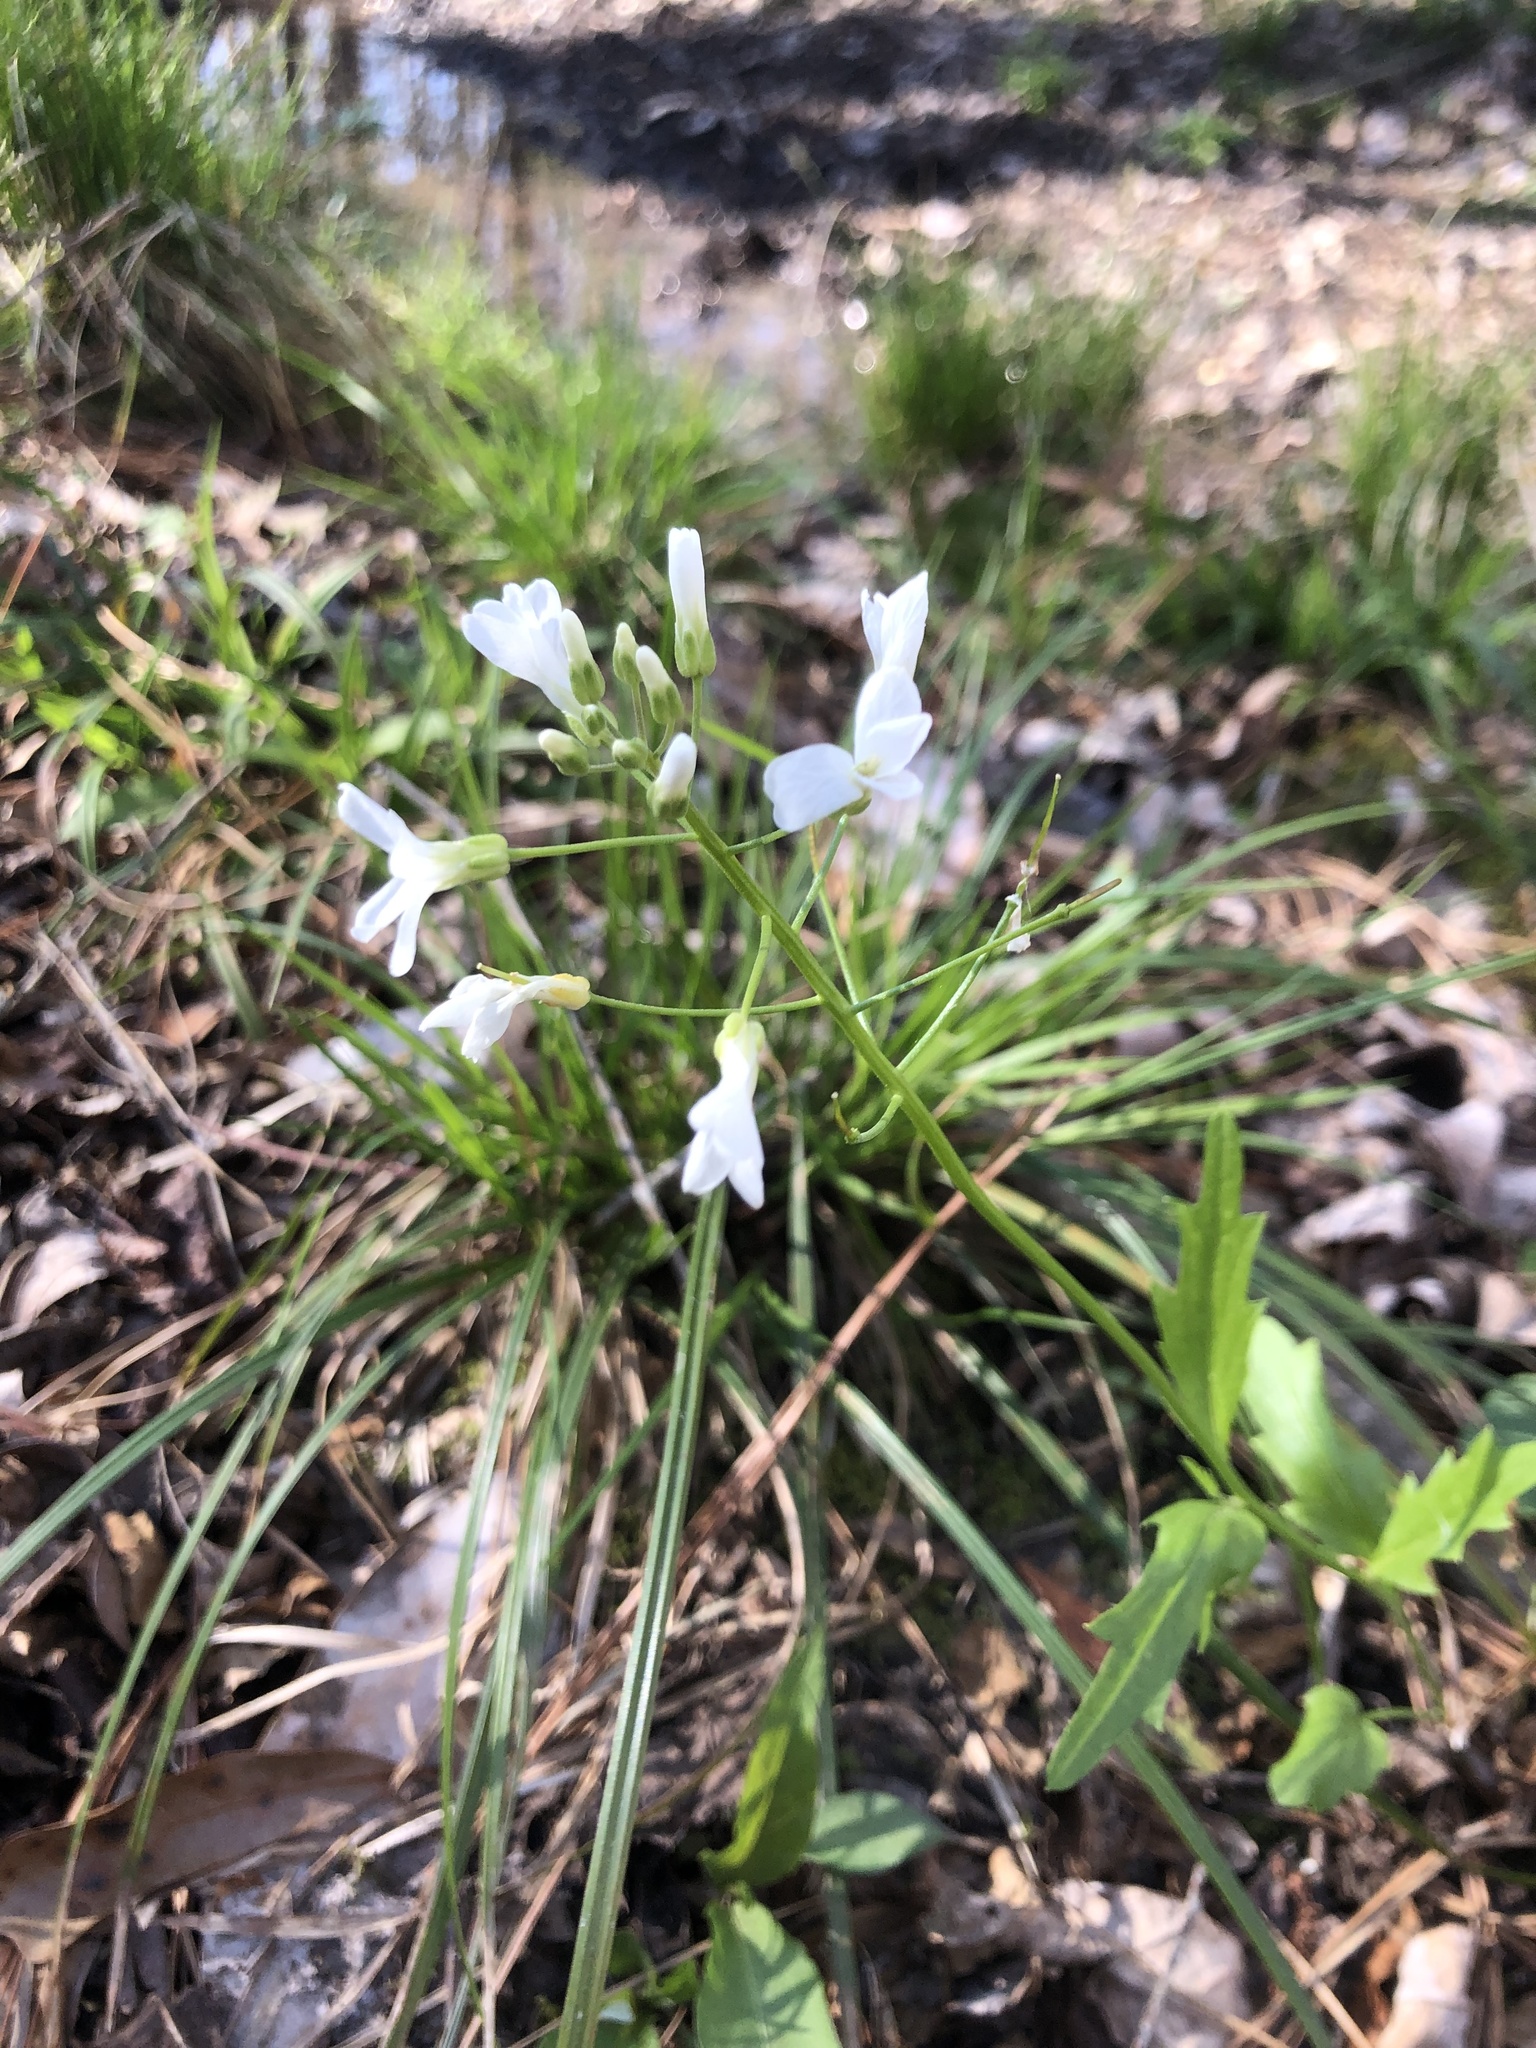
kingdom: Plantae
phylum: Tracheophyta
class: Magnoliopsida
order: Brassicales
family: Brassicaceae
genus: Cardamine
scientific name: Cardamine bulbosa
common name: Spring cress
